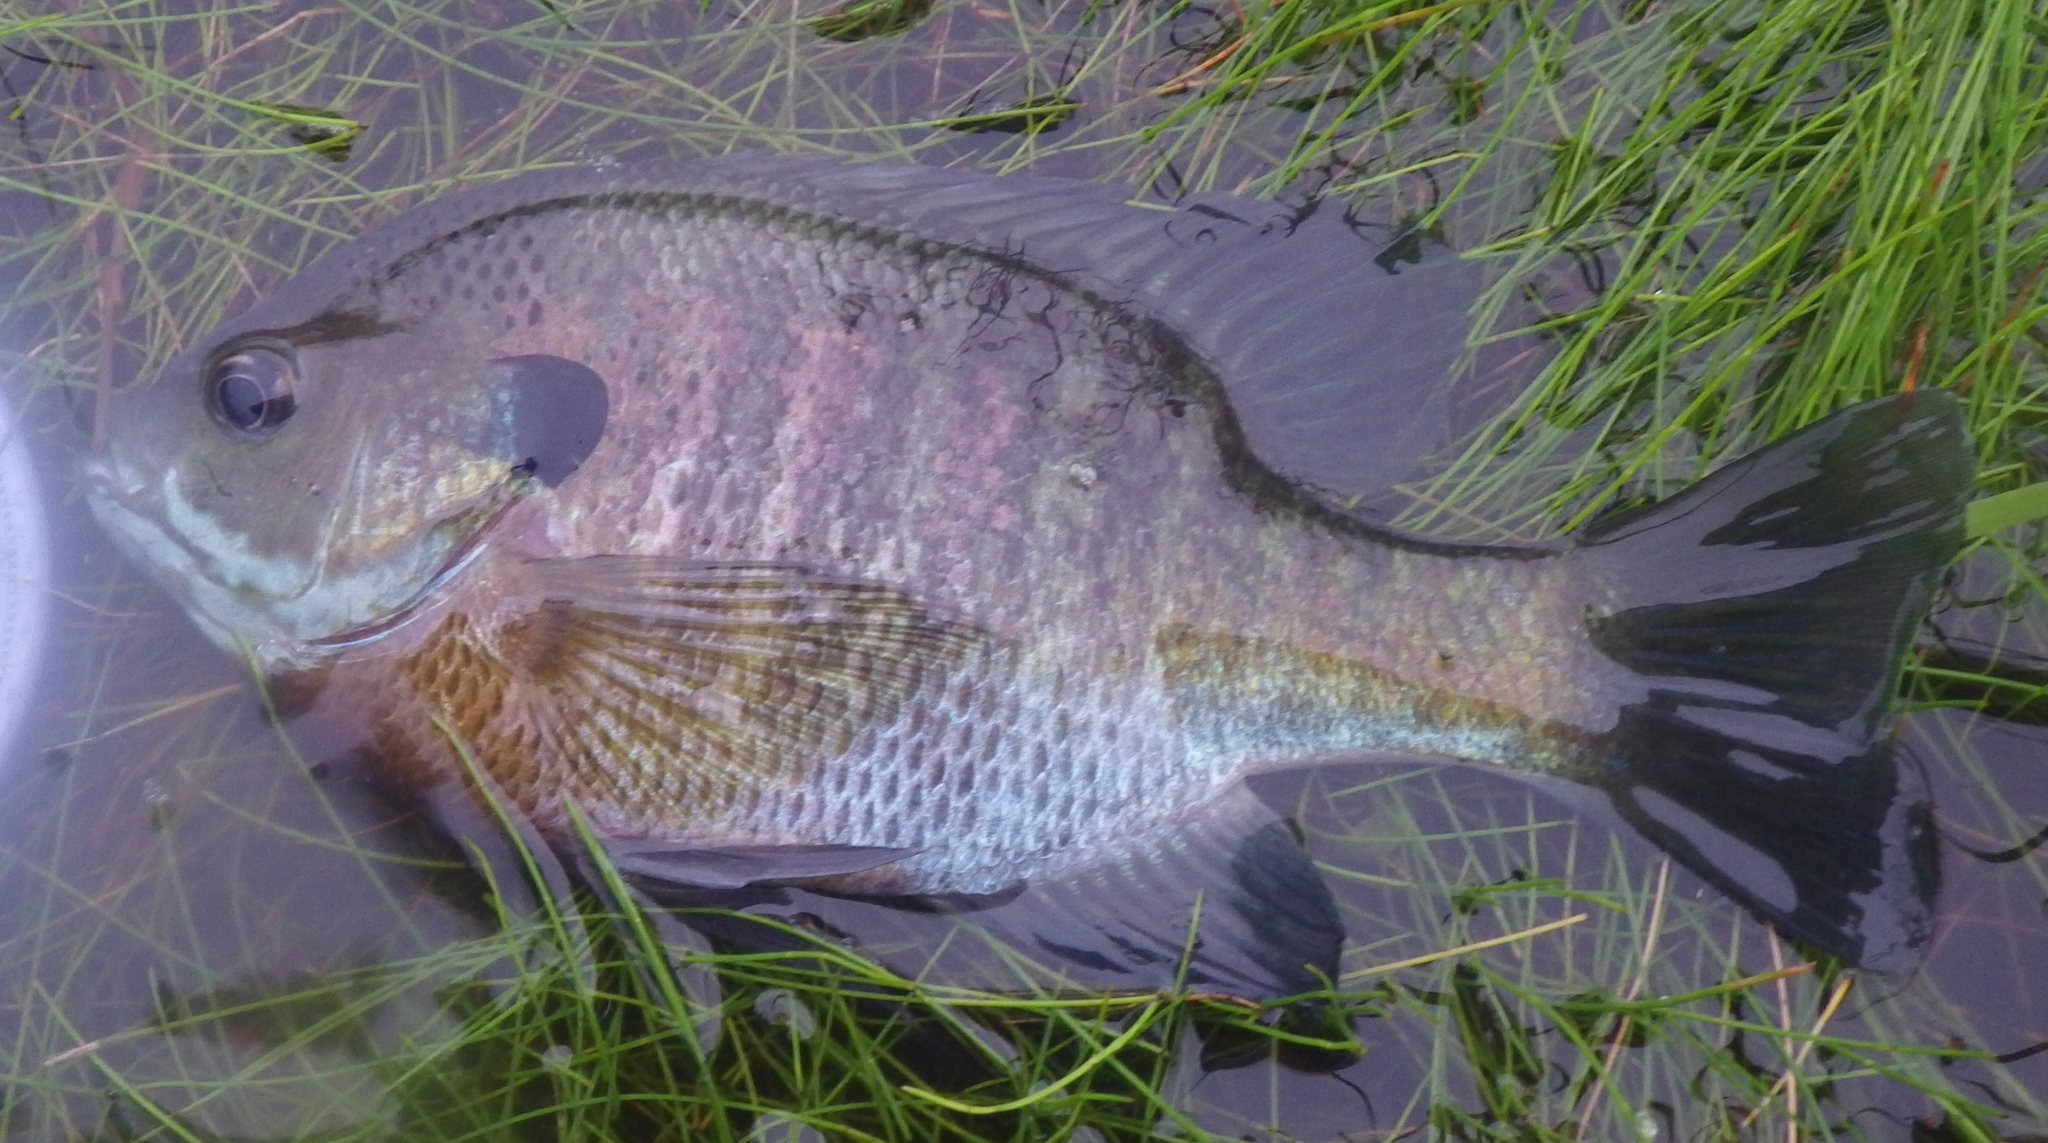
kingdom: Animalia
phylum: Chordata
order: Perciformes
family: Centrarchidae
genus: Lepomis
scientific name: Lepomis macrochirus
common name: Bluegill
